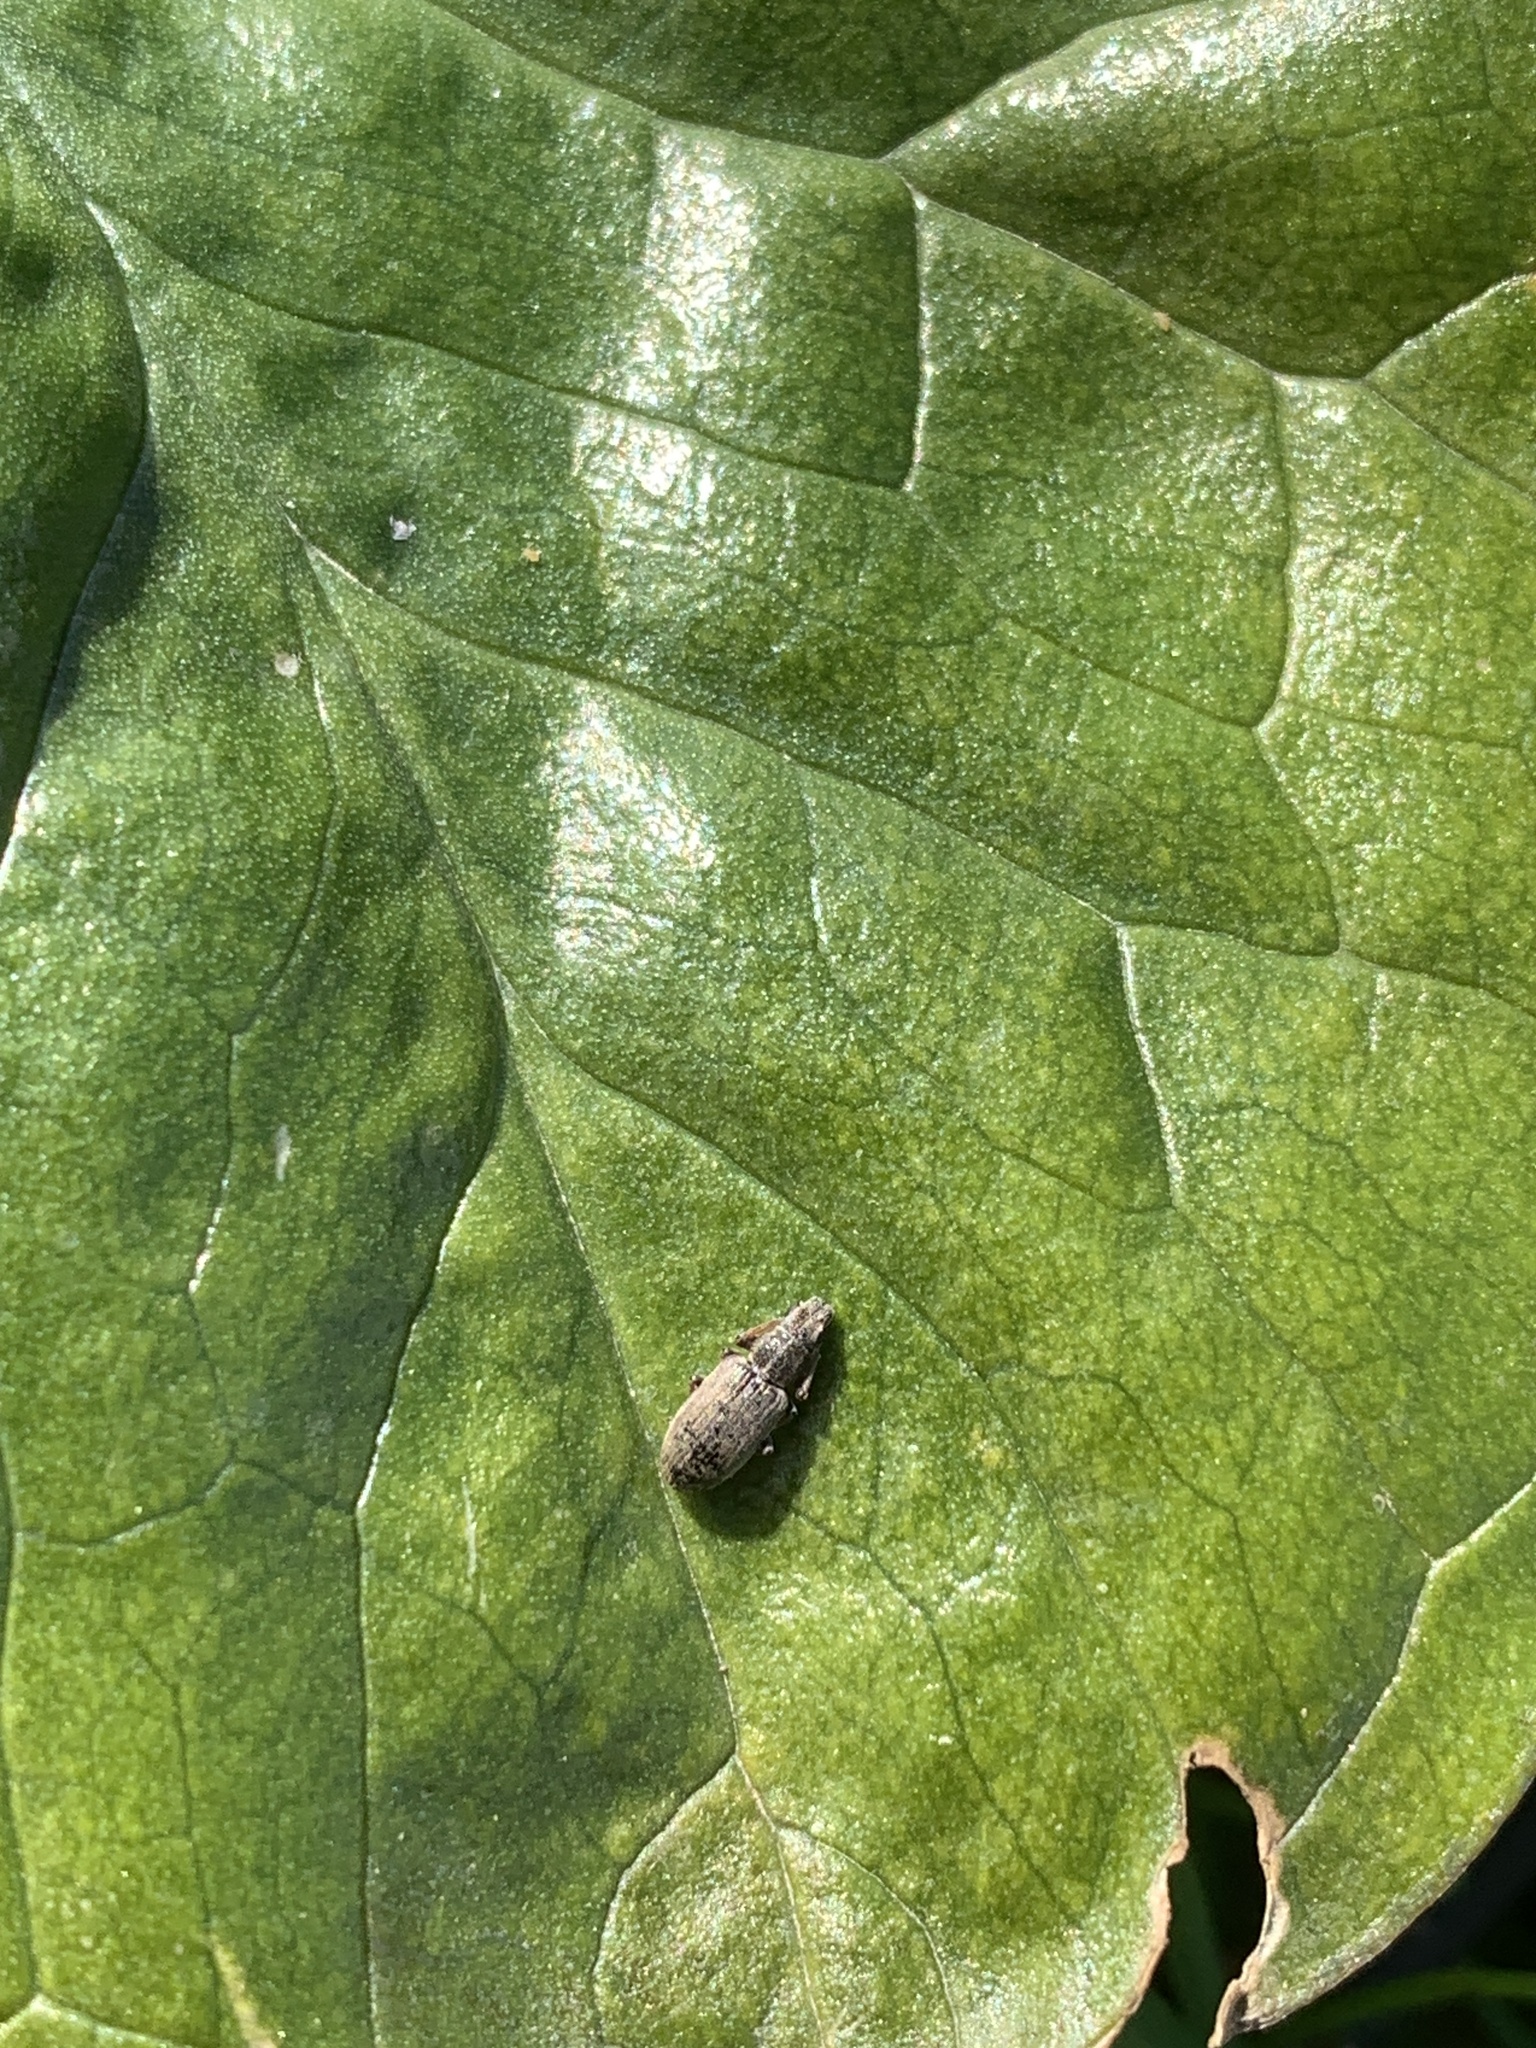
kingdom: Animalia
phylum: Arthropoda
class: Insecta
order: Coleoptera
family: Curculionidae
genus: Sitona
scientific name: Sitona hispidulus
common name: Clover weevil
